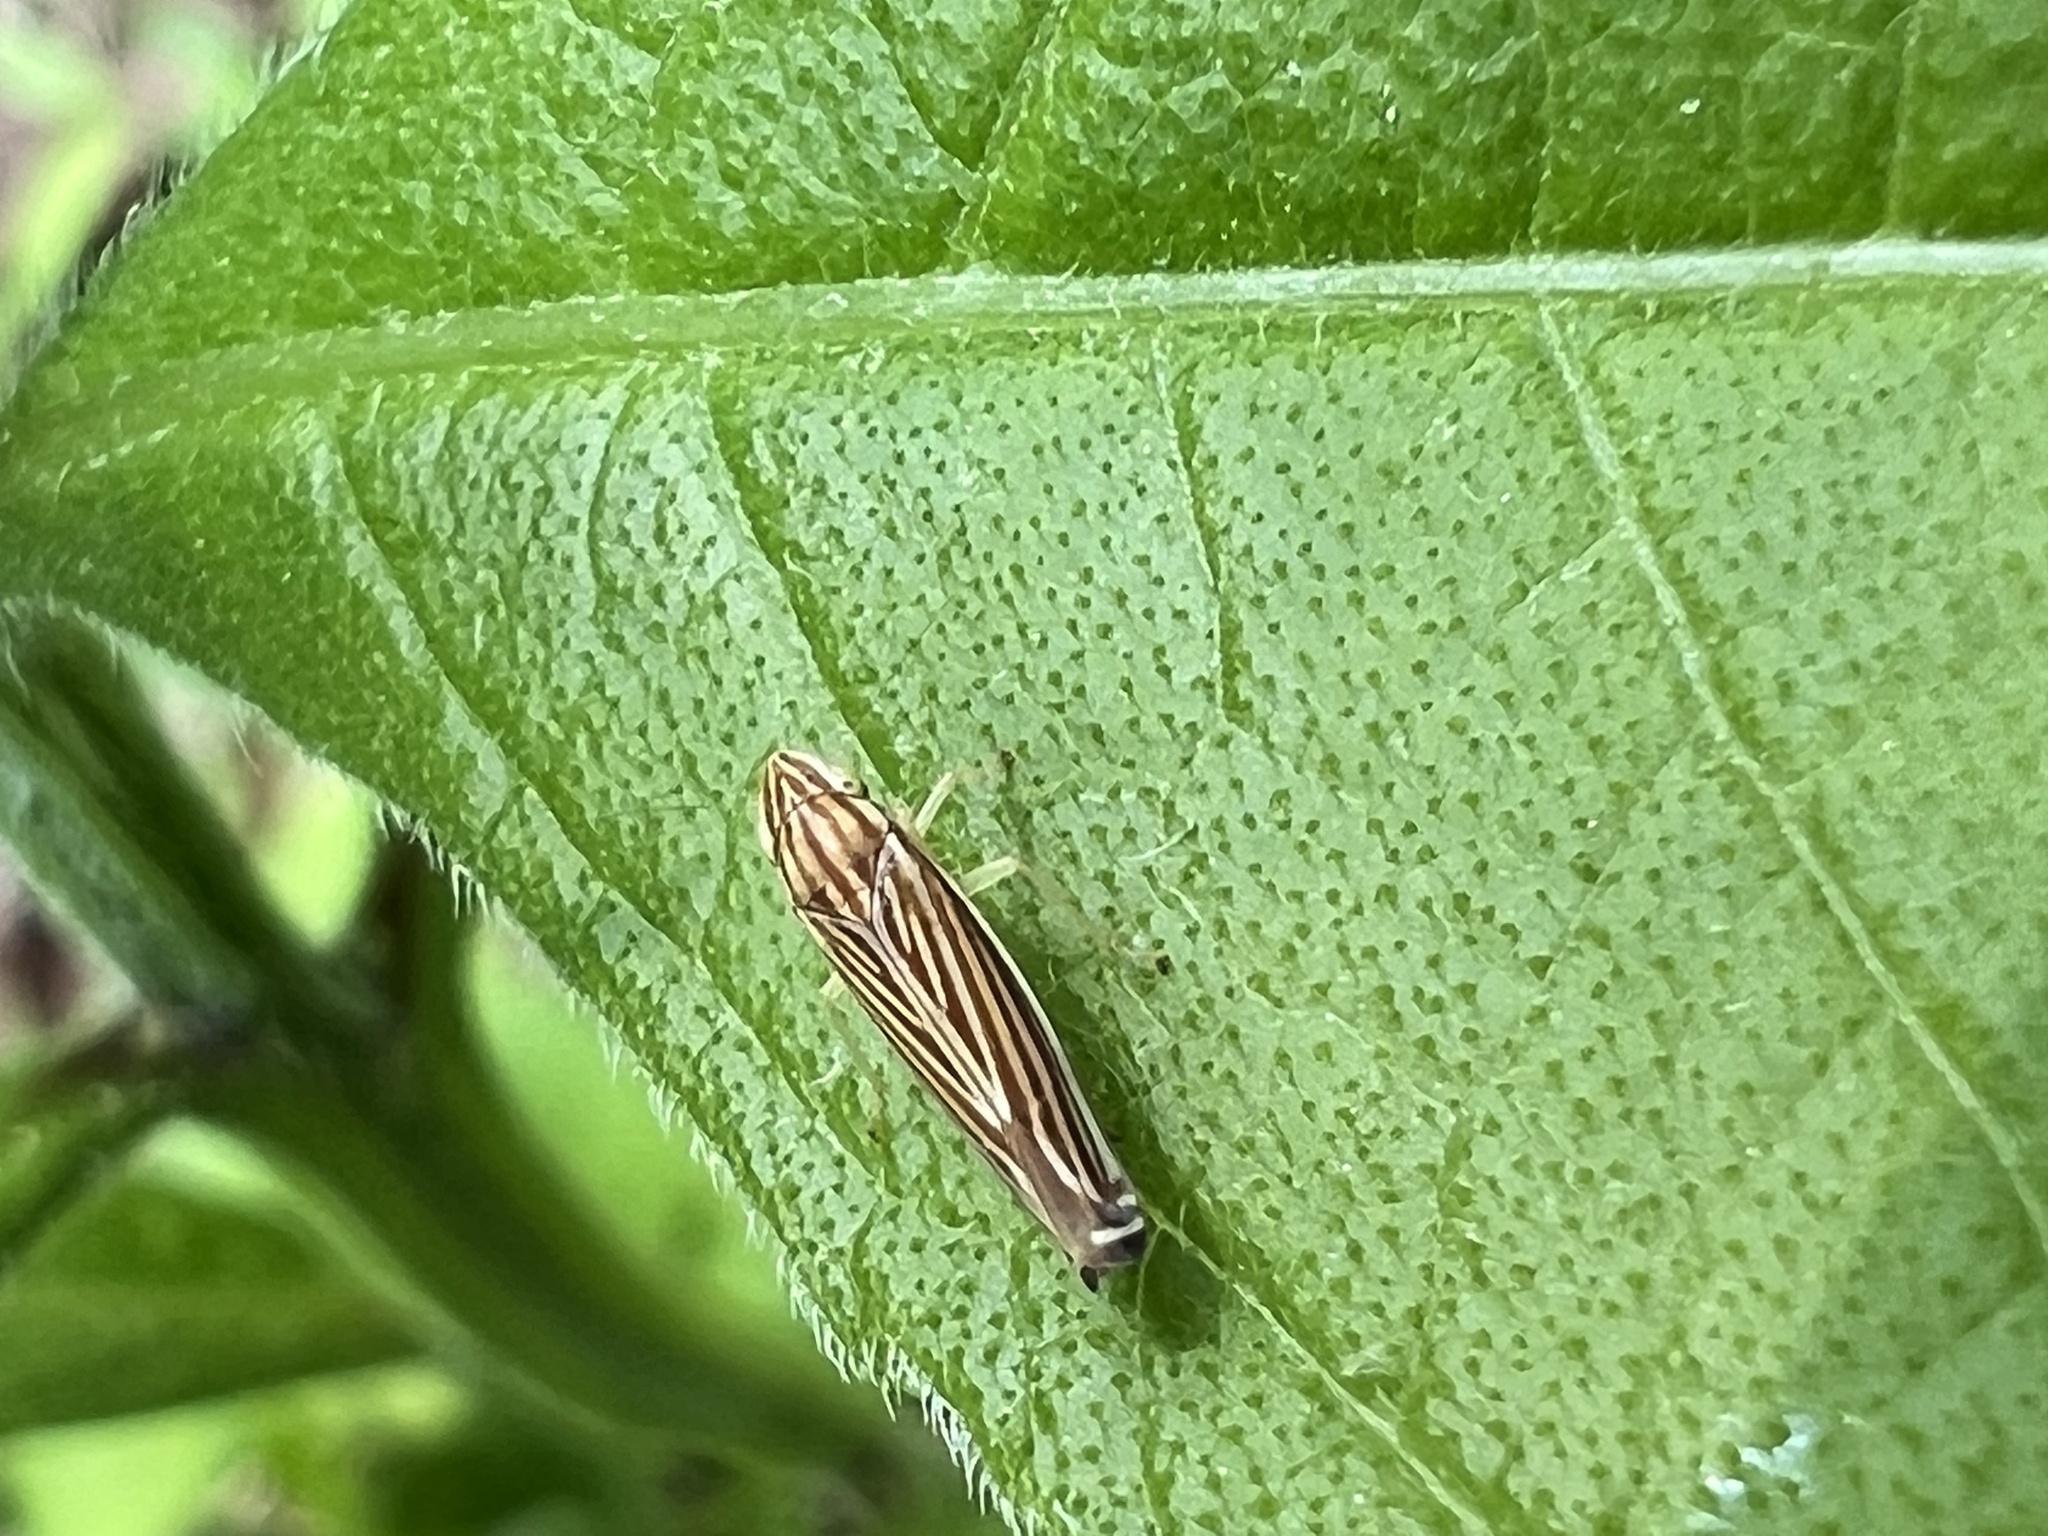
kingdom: Animalia
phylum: Arthropoda
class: Insecta
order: Hemiptera
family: Cicadellidae
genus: Sibovia
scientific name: Sibovia occatoria
